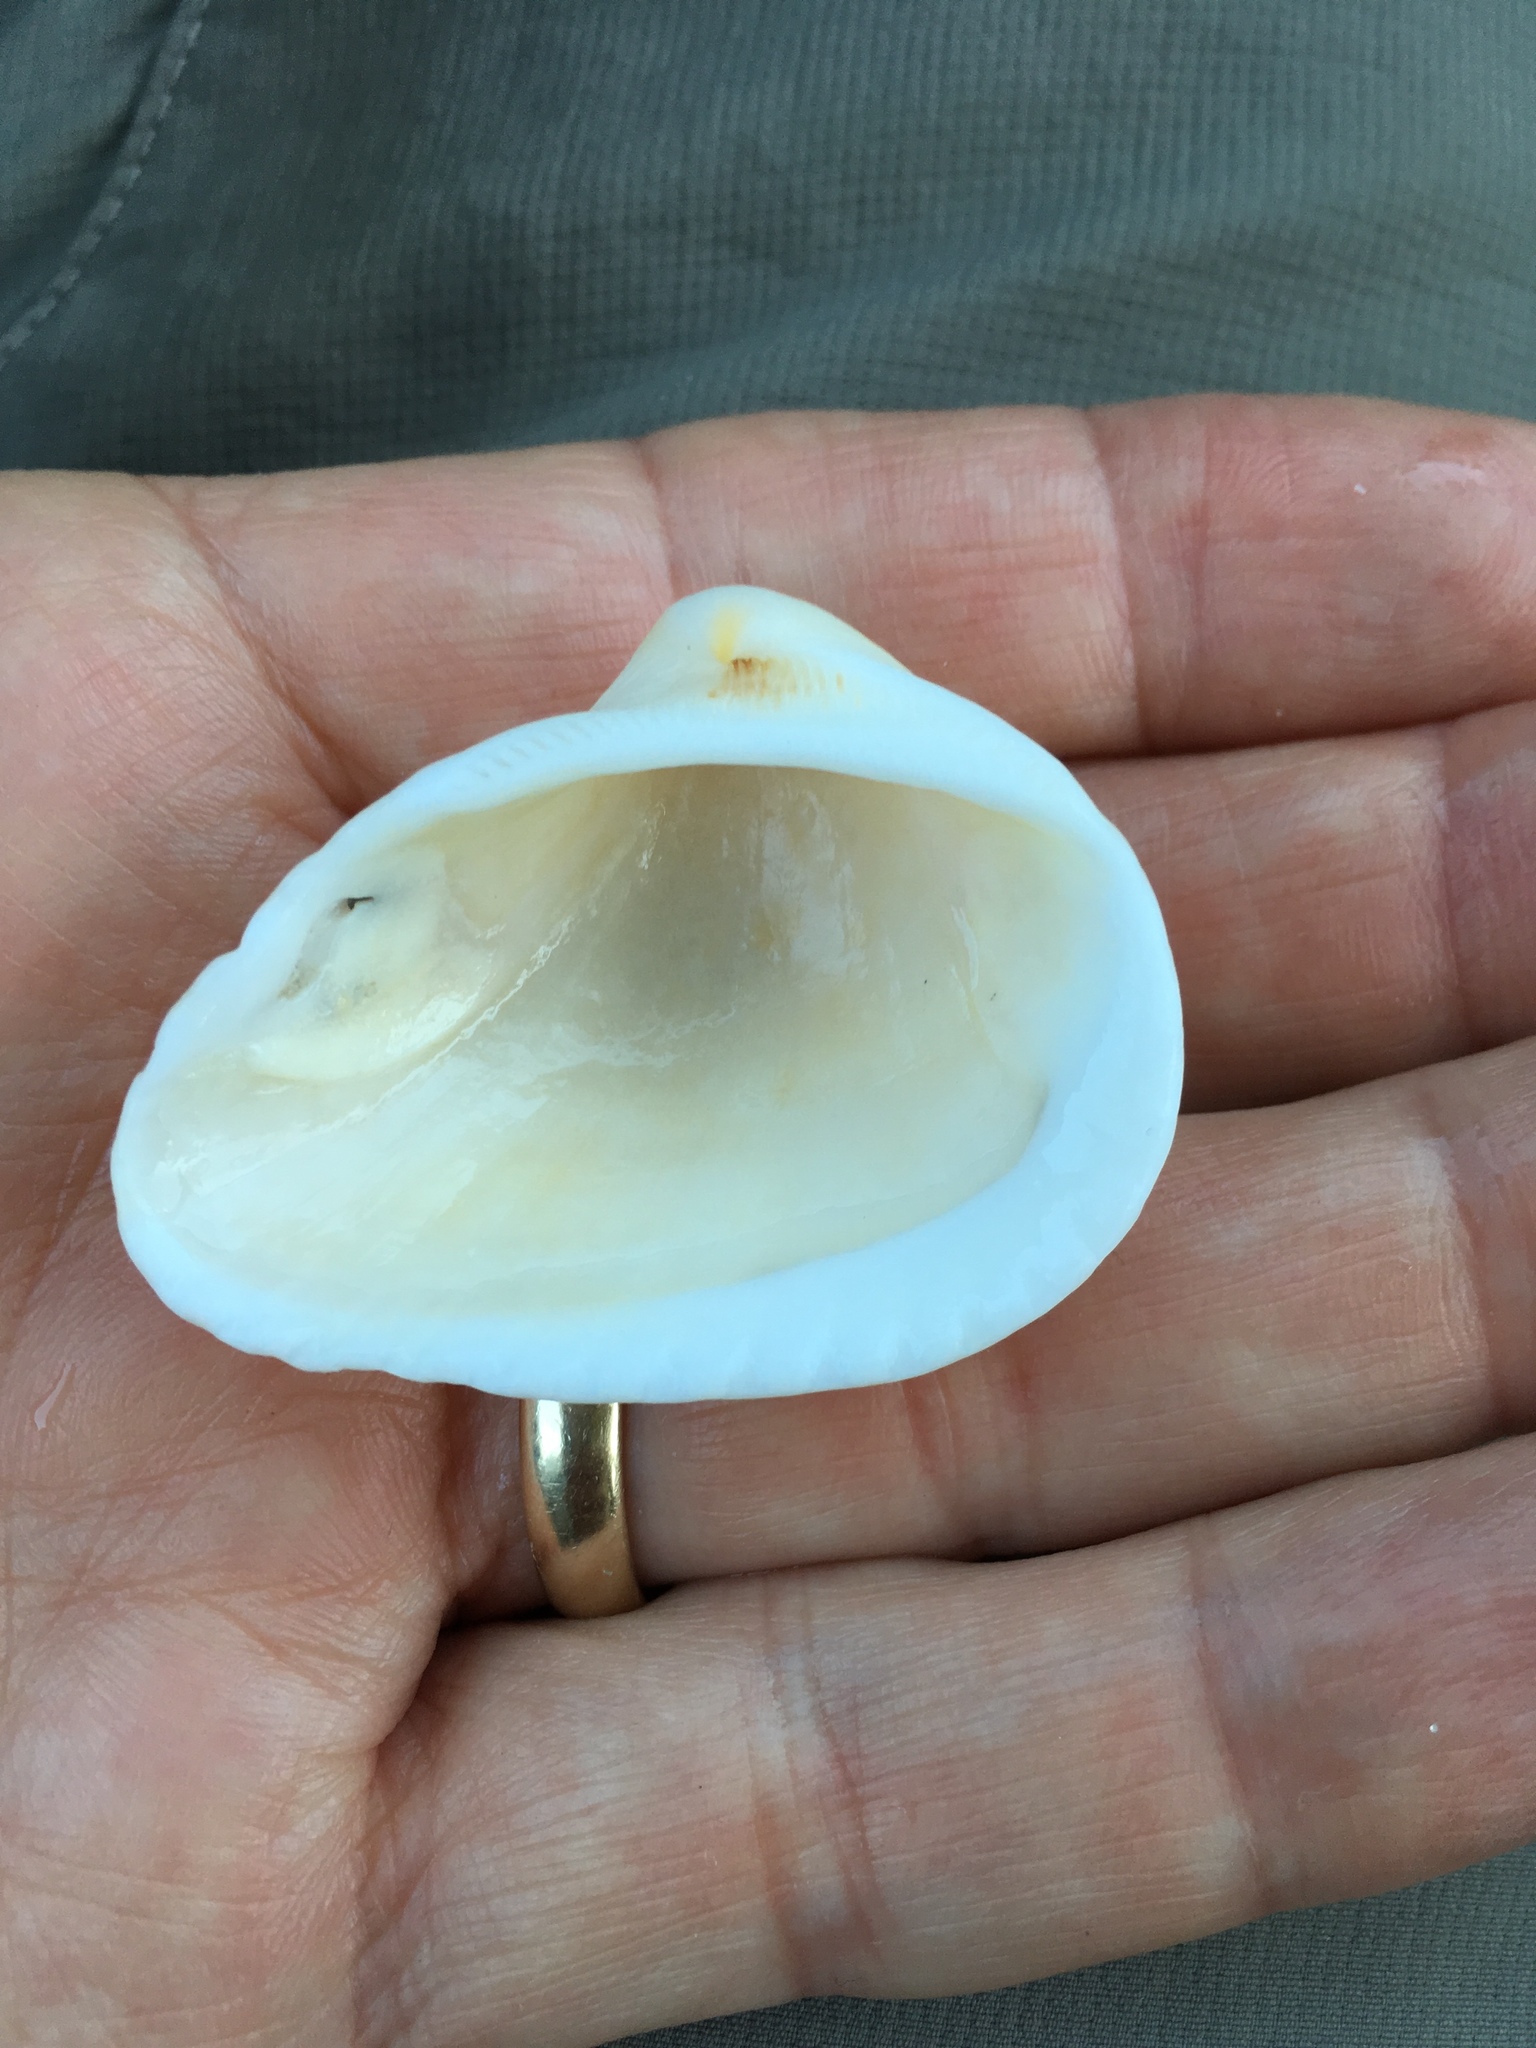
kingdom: Animalia
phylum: Mollusca
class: Bivalvia
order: Arcida
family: Noetiidae
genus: Noetia
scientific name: Noetia ponderosa
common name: Ponderous ark
